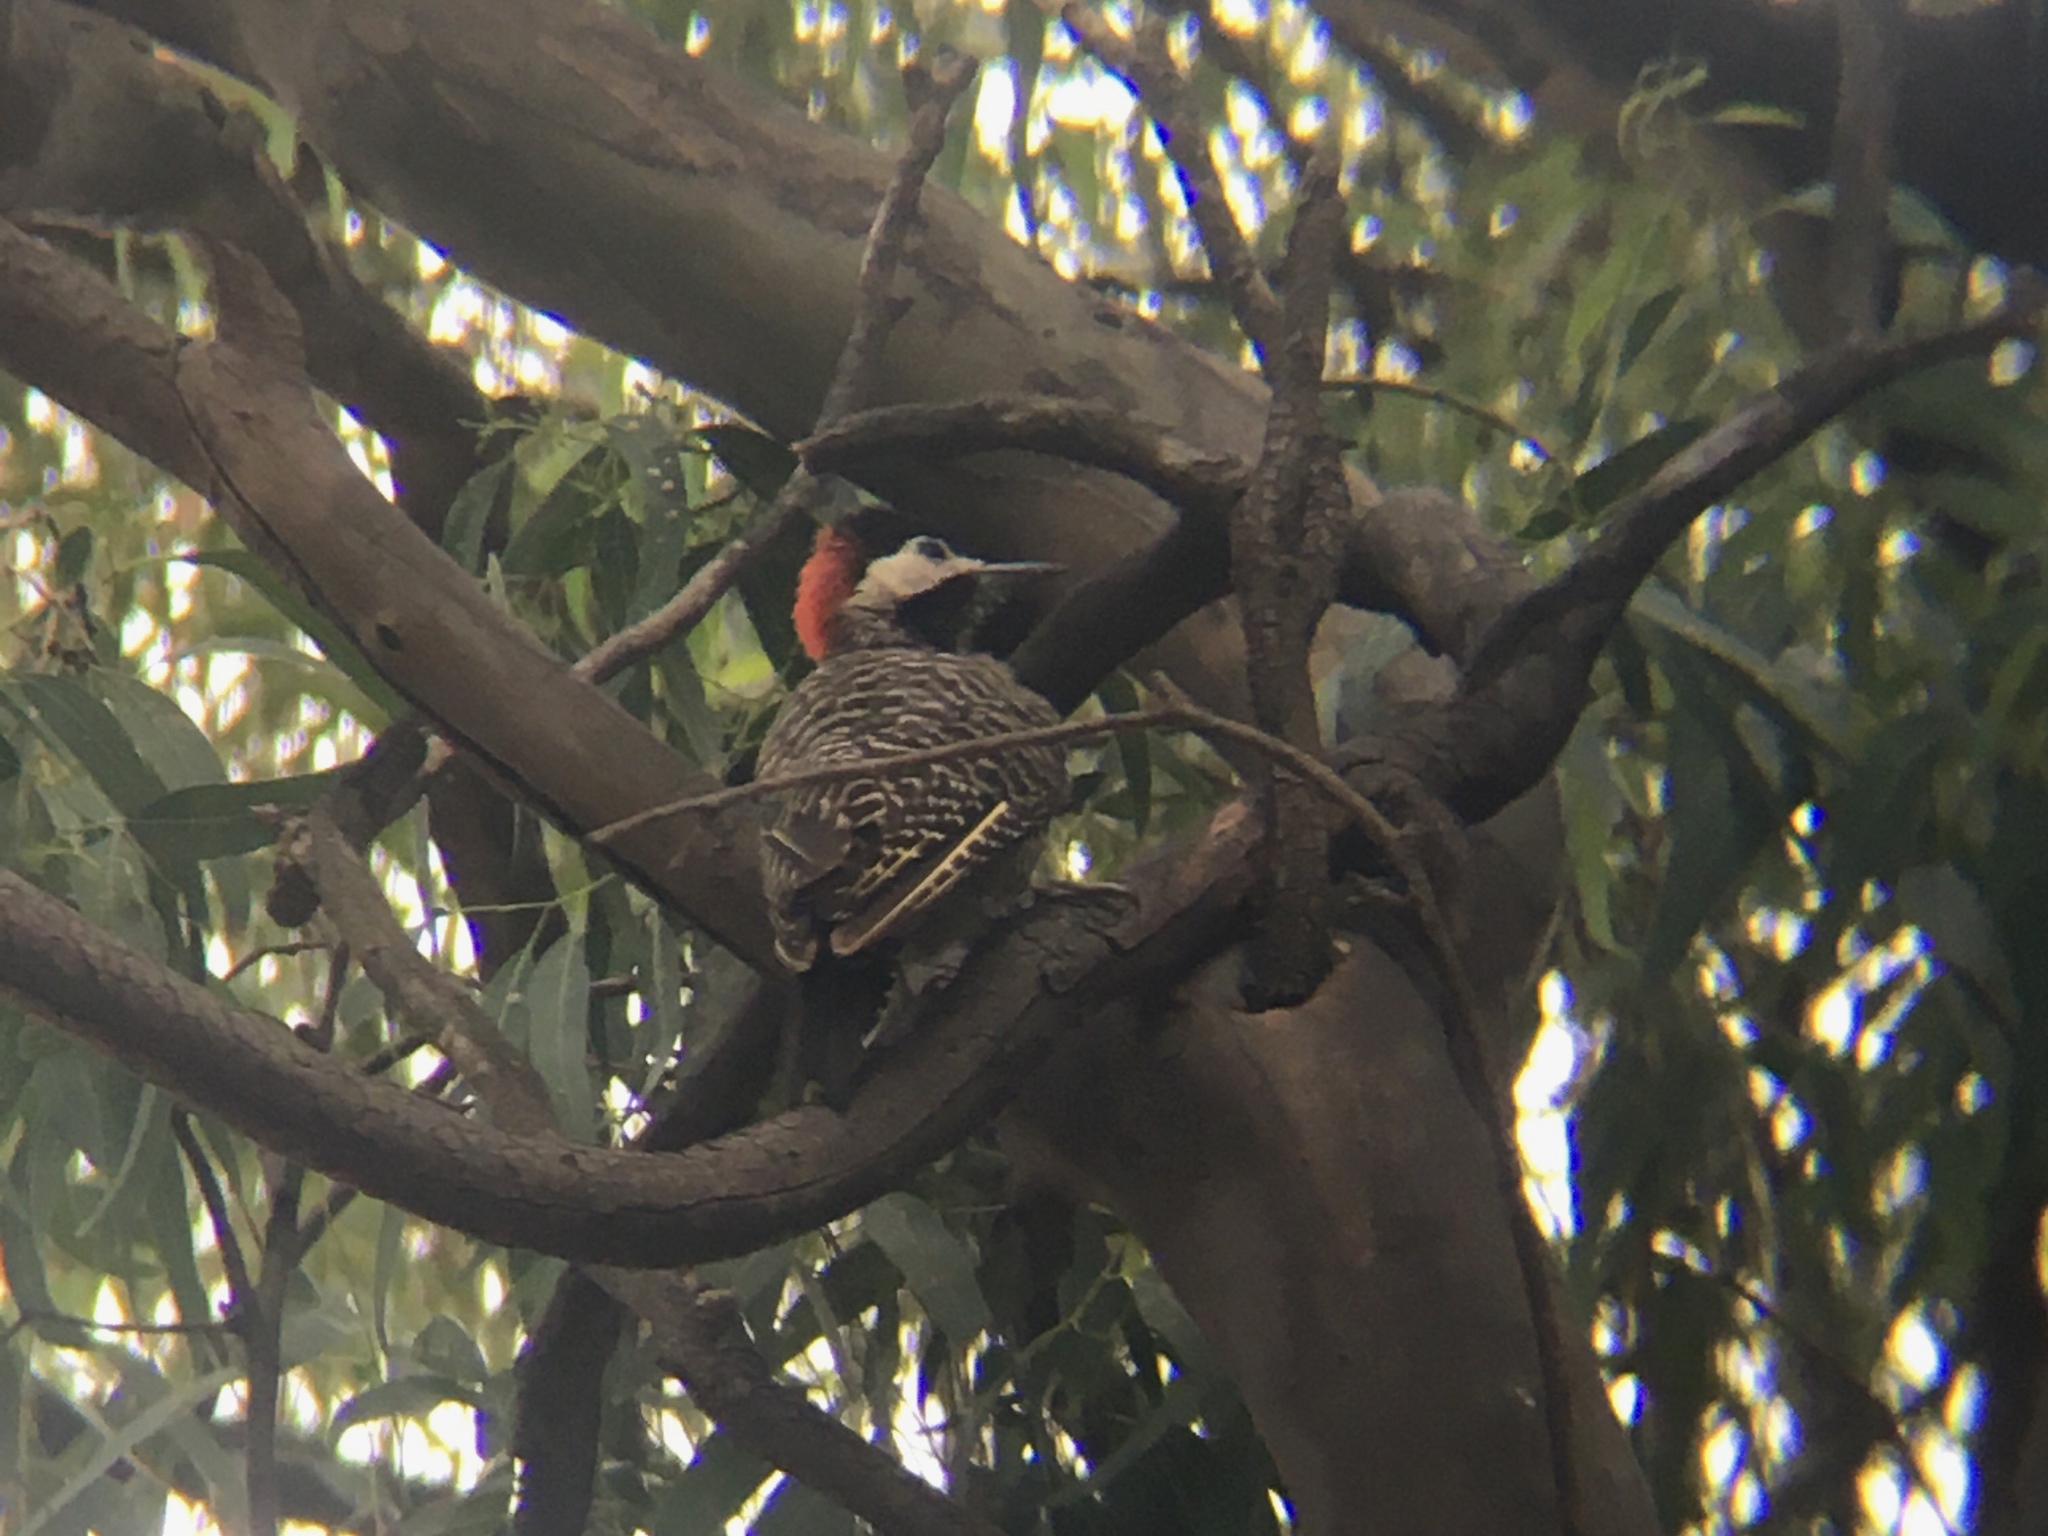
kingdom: Animalia
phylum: Chordata
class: Aves
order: Piciformes
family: Picidae
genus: Colaptes
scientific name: Colaptes melanochloros
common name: Green-barred woodpecker
